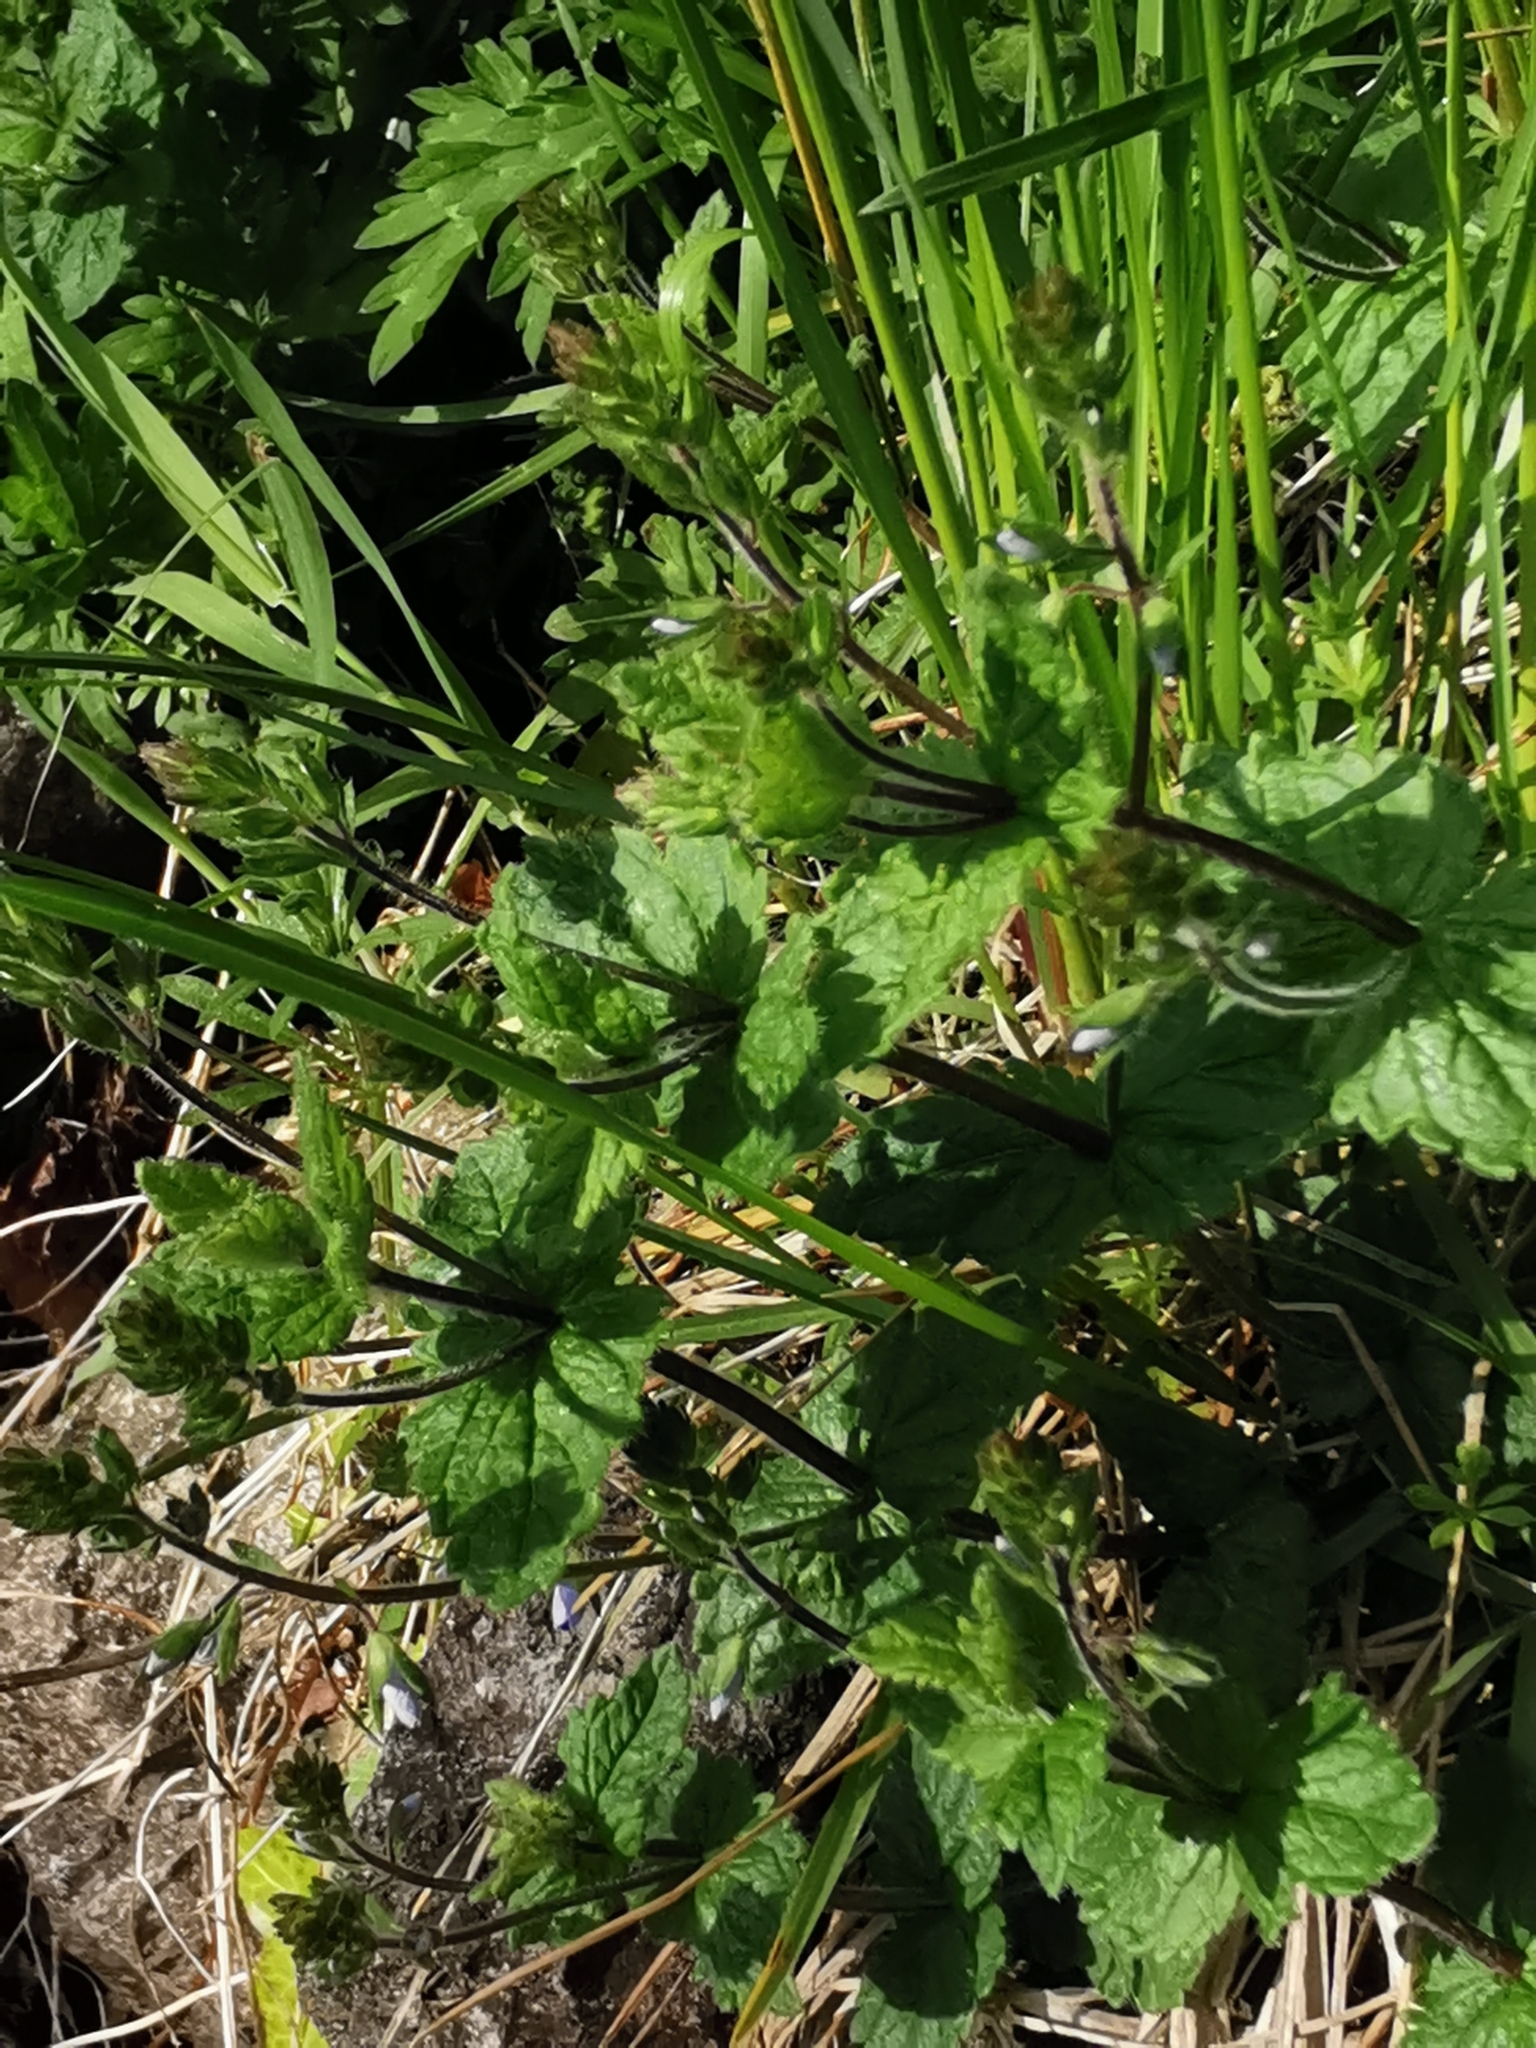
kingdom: Plantae
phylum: Tracheophyta
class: Magnoliopsida
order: Lamiales
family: Plantaginaceae
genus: Veronica
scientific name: Veronica chamaedrys
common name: Germander speedwell
